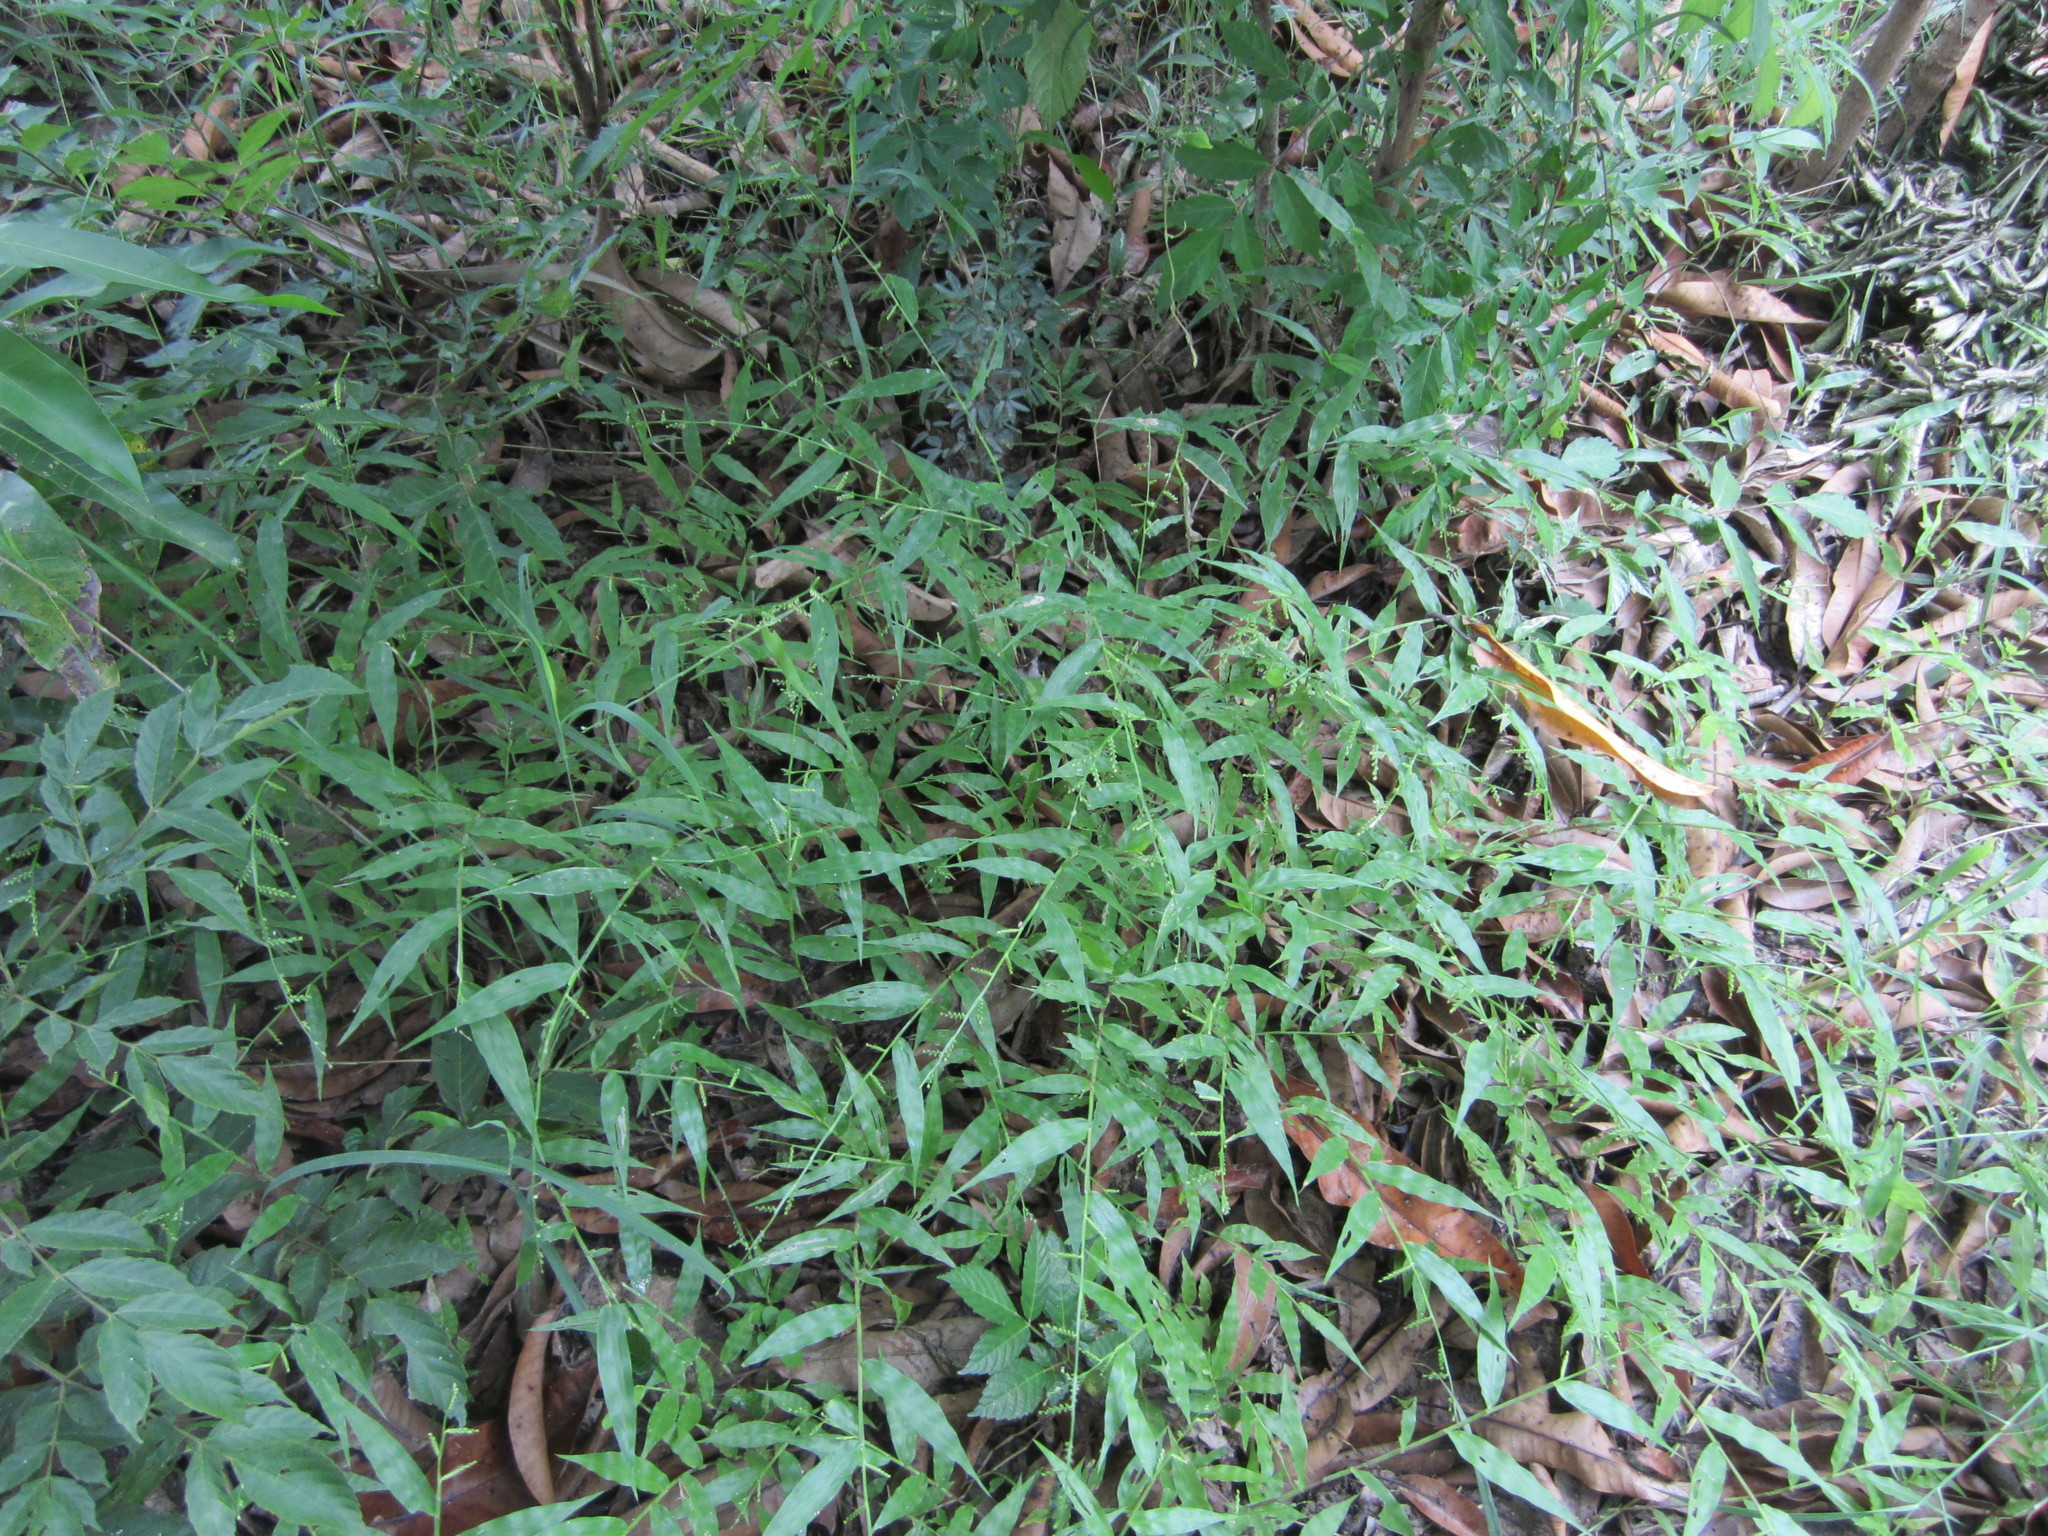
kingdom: Plantae
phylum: Tracheophyta
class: Liliopsida
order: Poales
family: Poaceae
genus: Cyphochlaena
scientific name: Cyphochlaena madagascariensis
